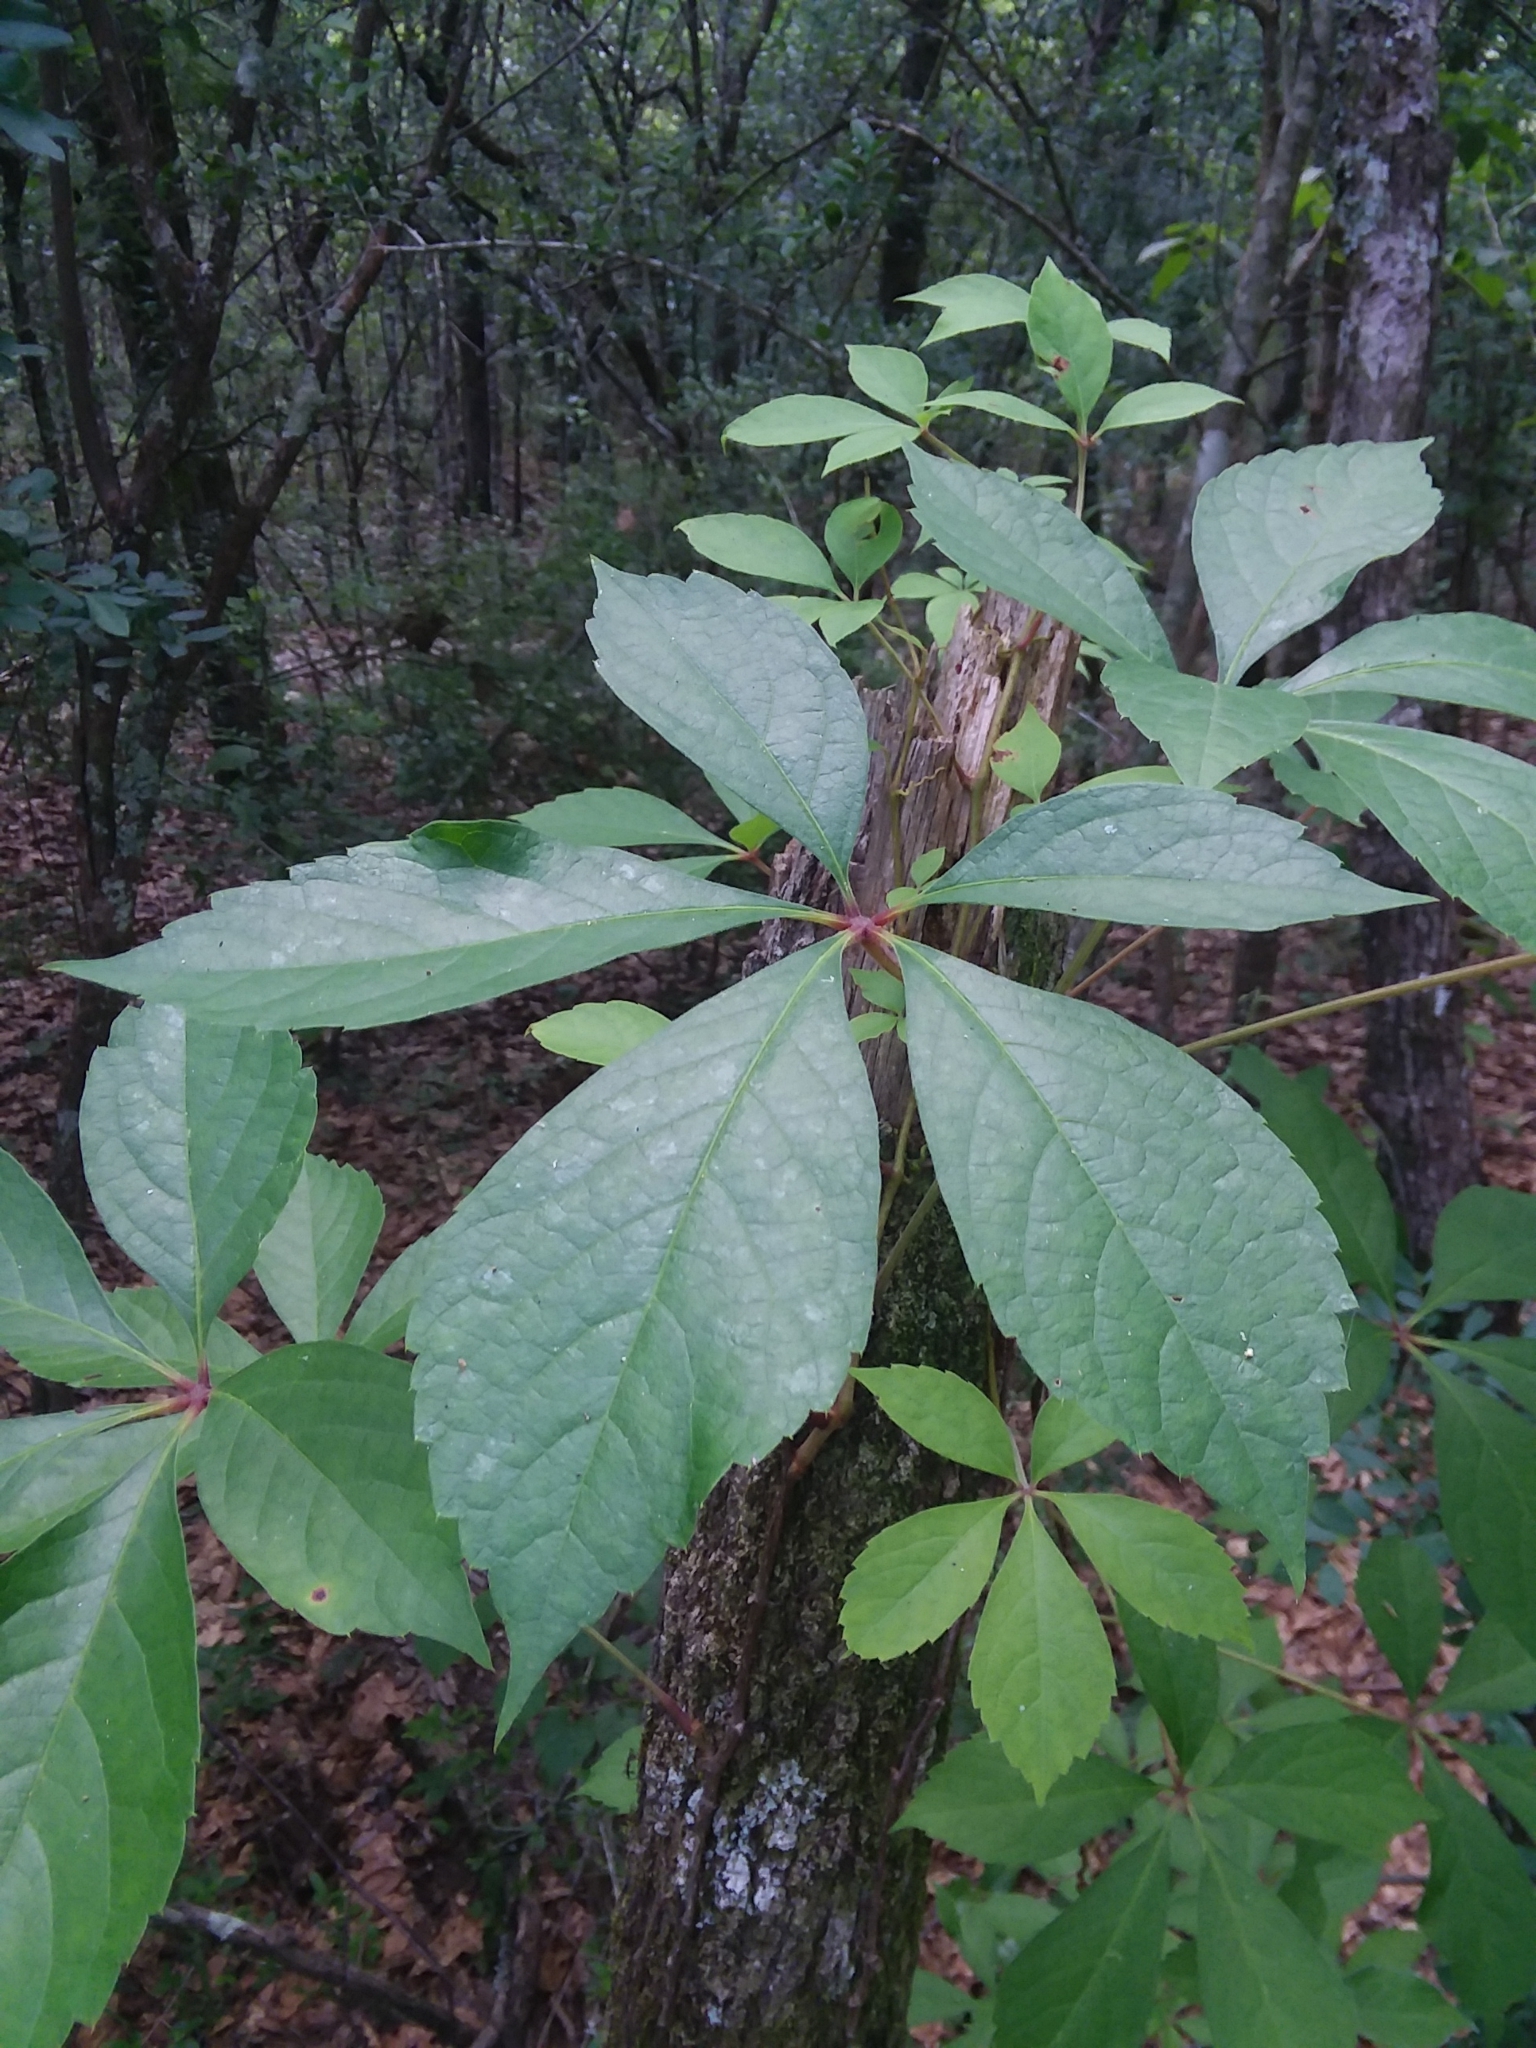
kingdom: Plantae
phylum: Tracheophyta
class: Magnoliopsida
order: Vitales
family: Vitaceae
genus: Parthenocissus
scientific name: Parthenocissus quinquefolia
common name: Virginia-creeper
